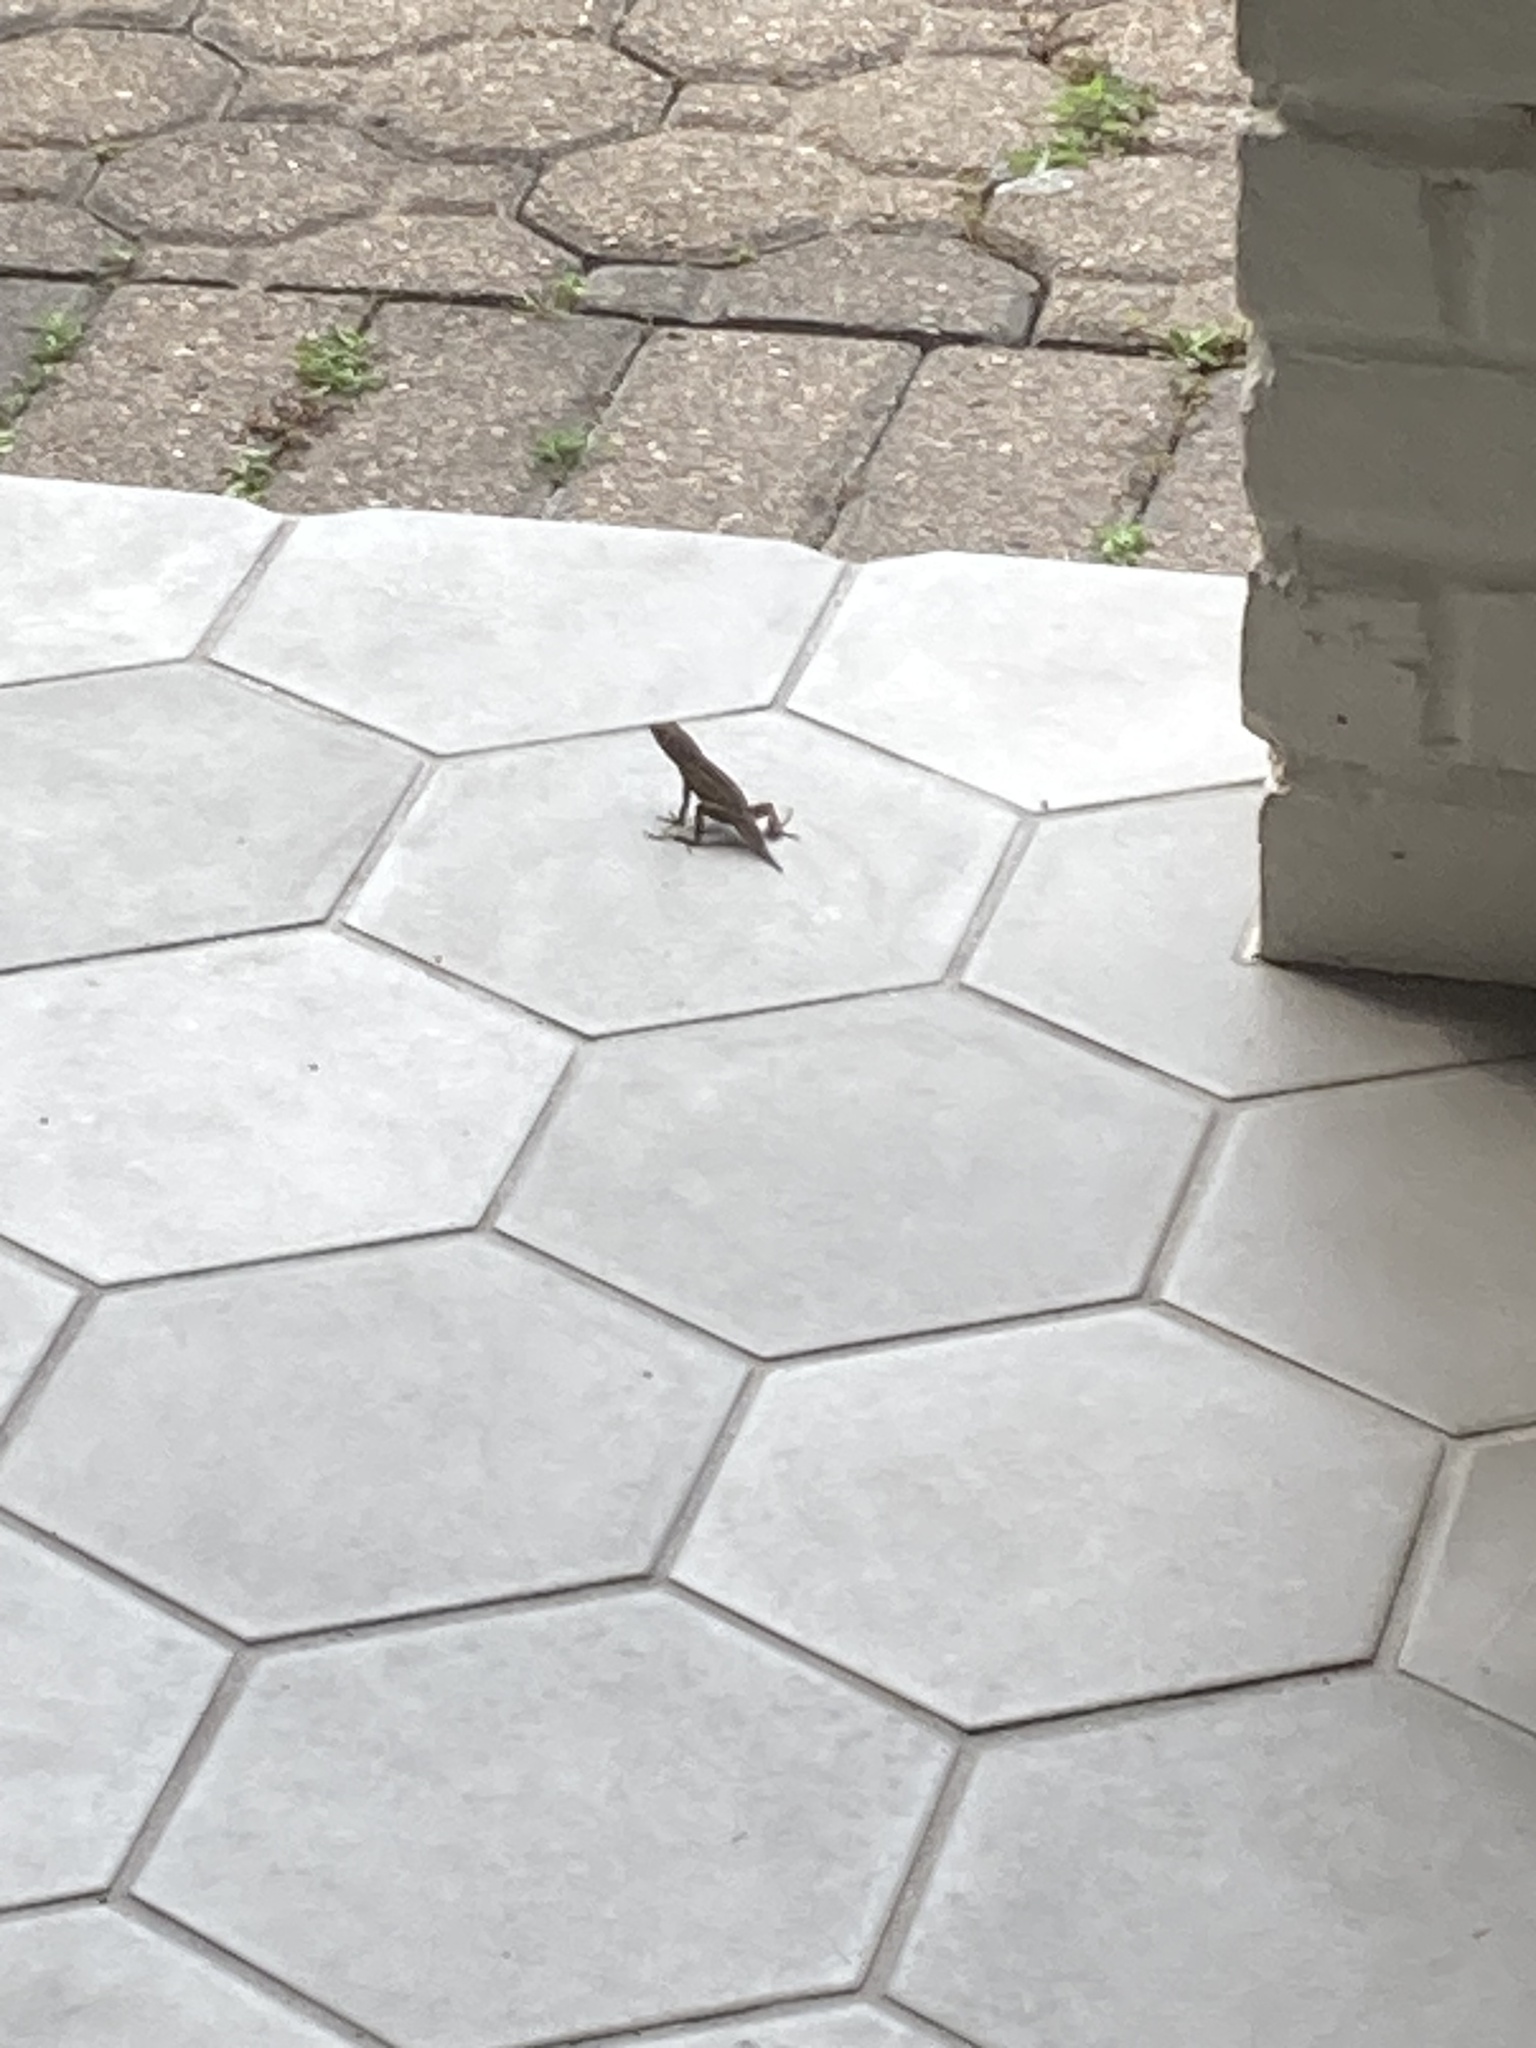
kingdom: Animalia
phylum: Chordata
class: Squamata
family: Dactyloidae
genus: Anolis
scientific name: Anolis sagrei
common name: Brown anole
